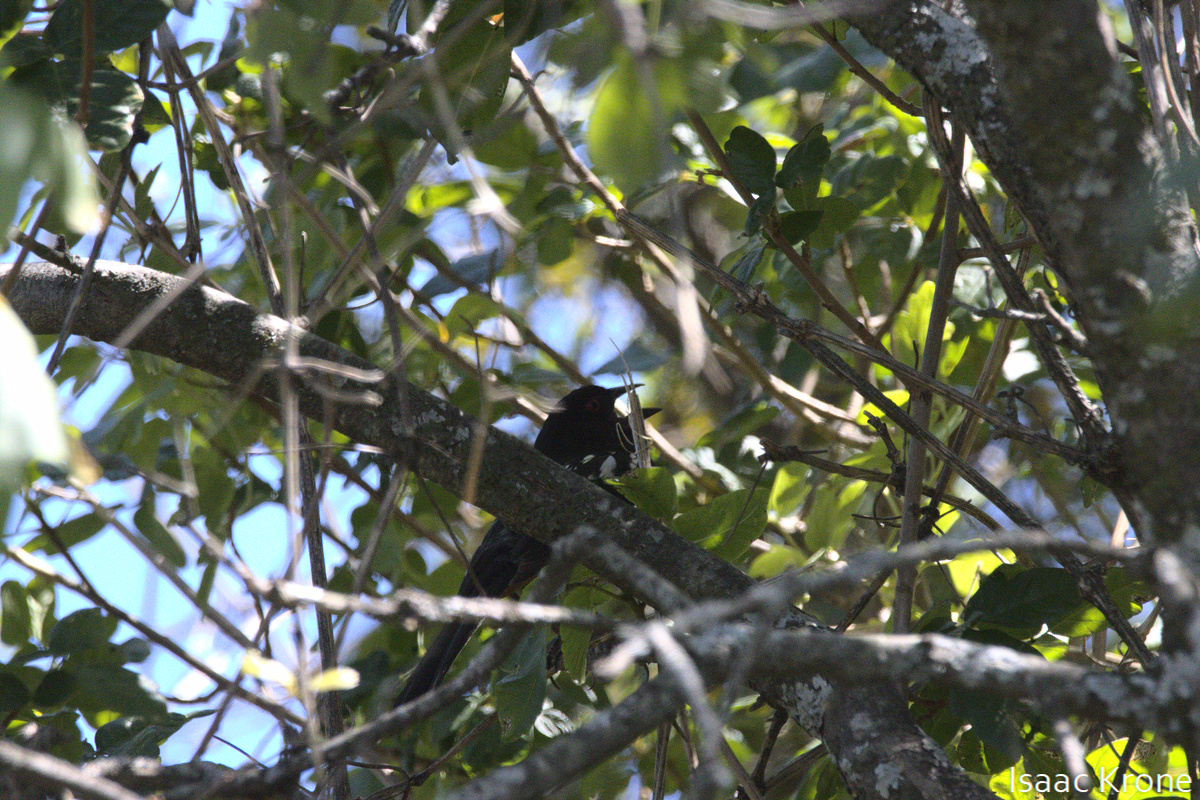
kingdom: Animalia
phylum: Chordata
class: Aves
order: Passeriformes
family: Passerellidae
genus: Pipilo
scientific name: Pipilo maculatus
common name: Spotted towhee
